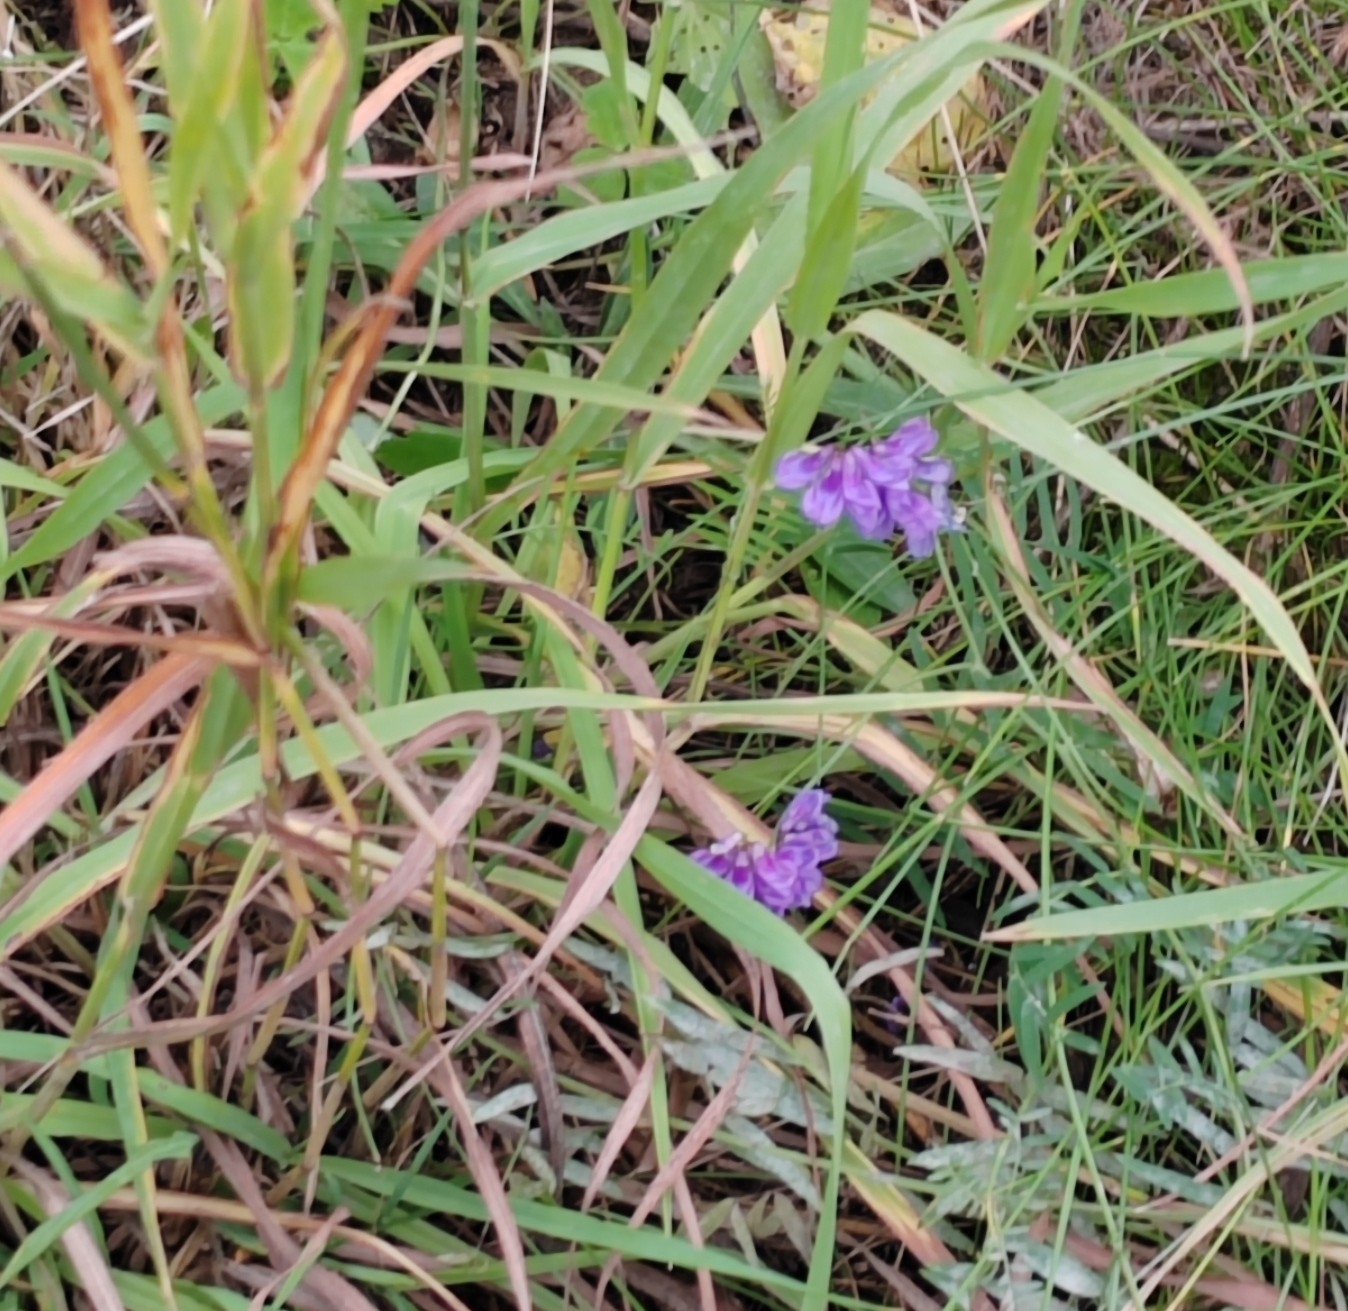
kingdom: Plantae
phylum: Tracheophyta
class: Magnoliopsida
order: Fabales
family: Fabaceae
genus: Vicia
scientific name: Vicia cracca
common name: Bird vetch
